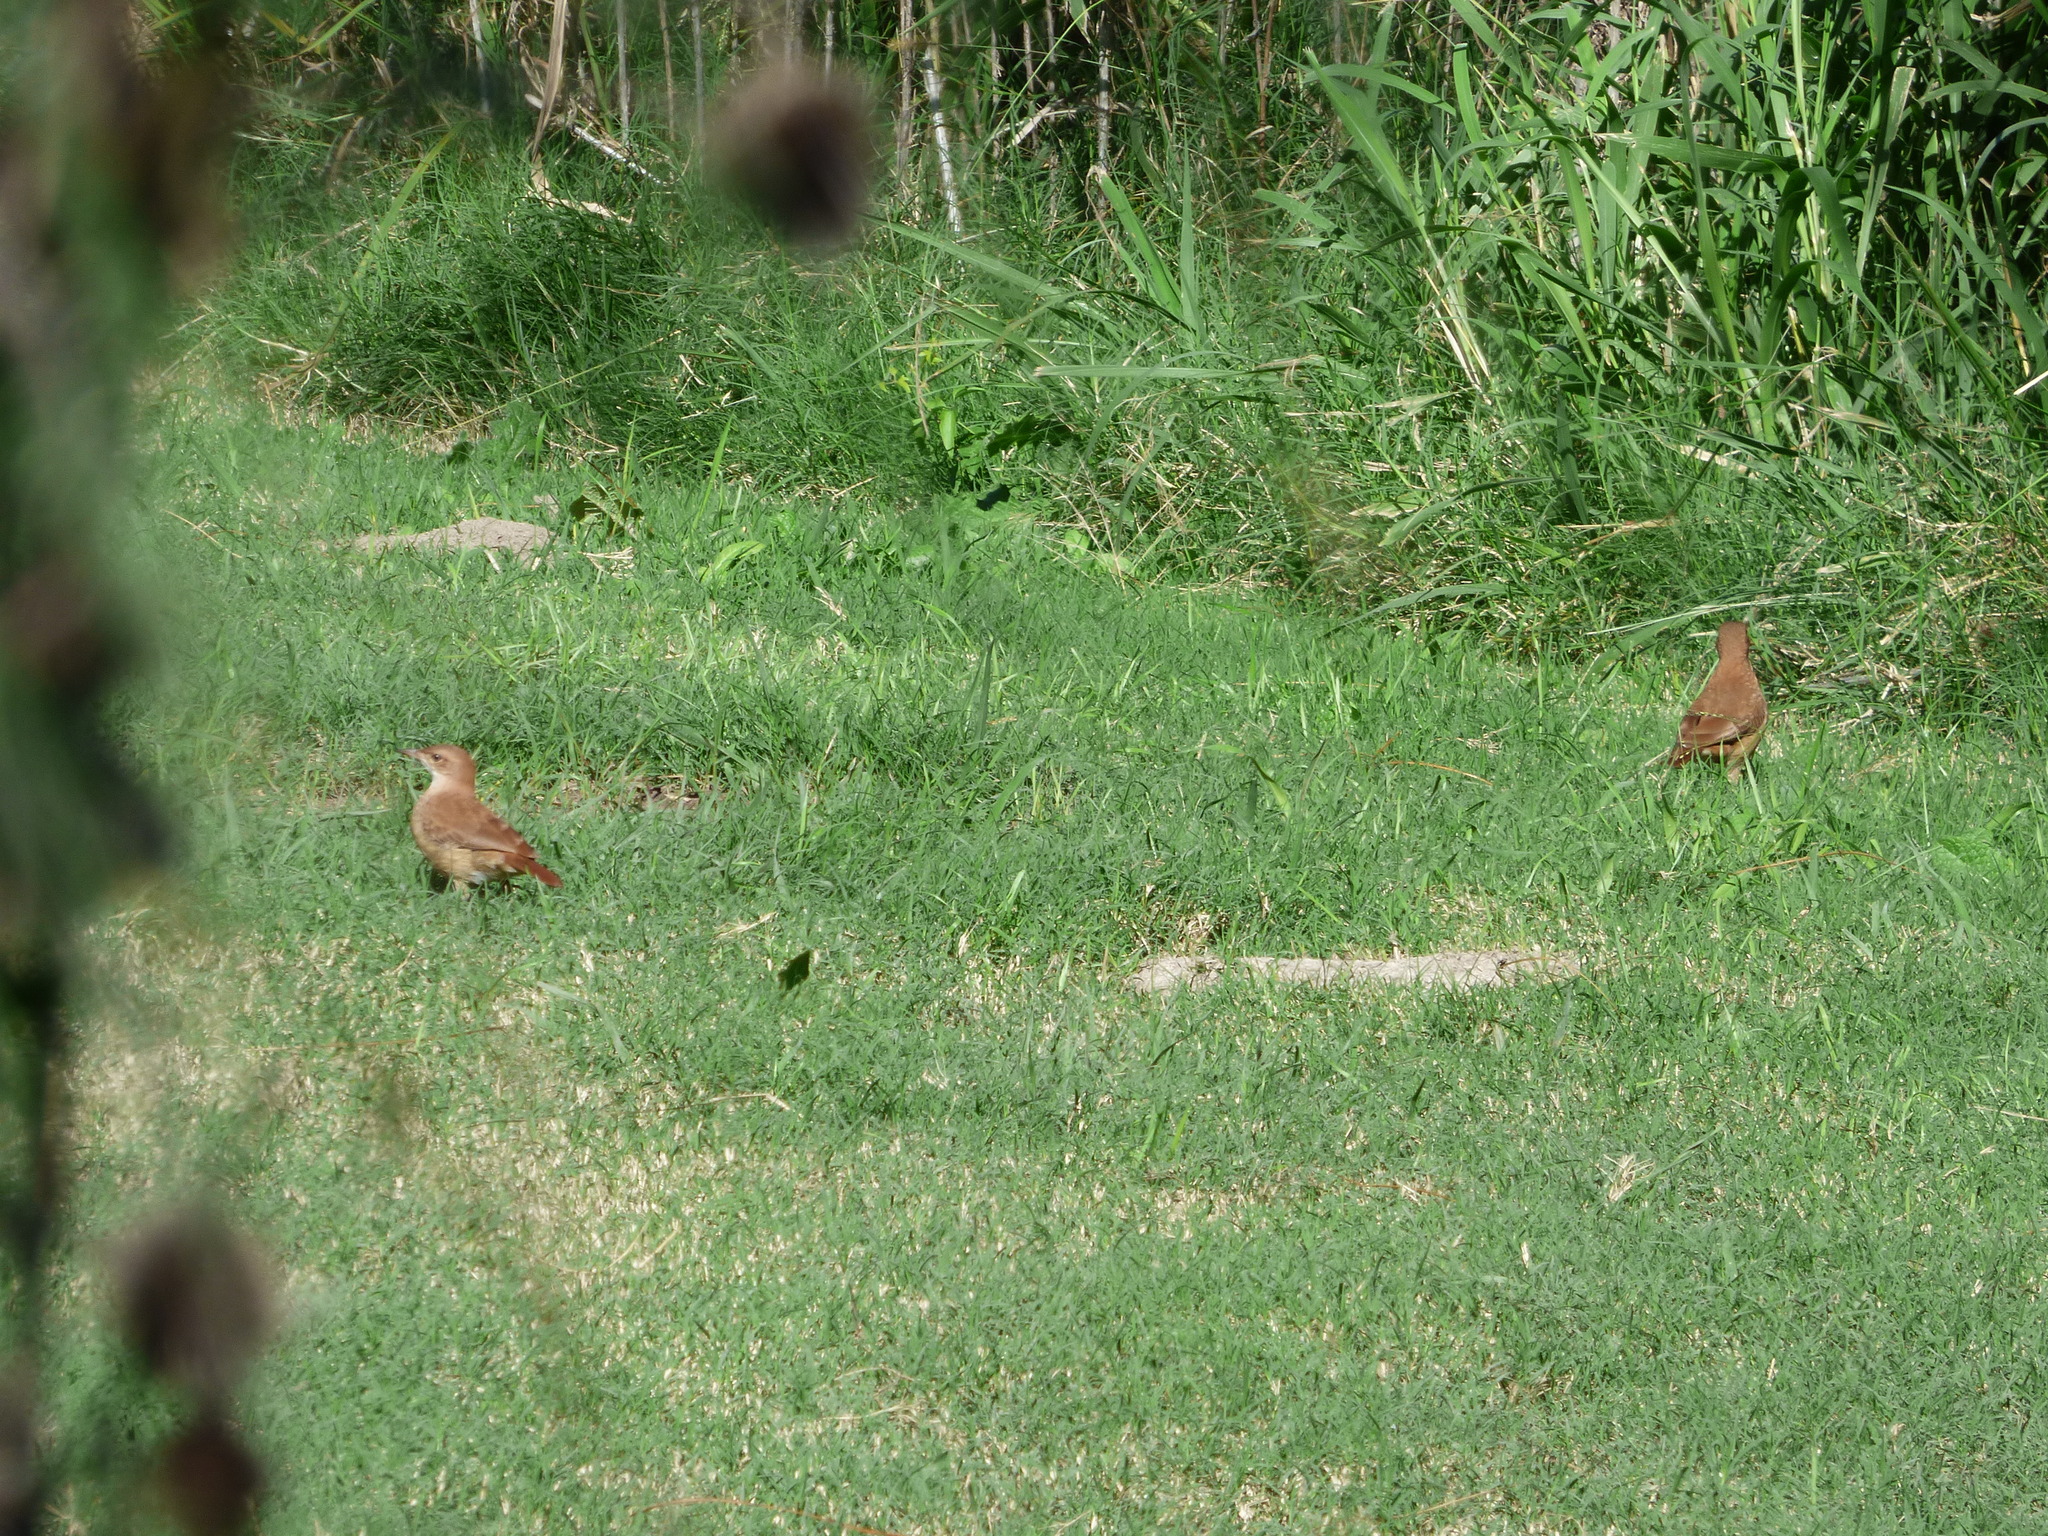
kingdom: Animalia
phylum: Chordata
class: Aves
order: Passeriformes
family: Furnariidae
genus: Furnarius
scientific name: Furnarius rufus
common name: Rufous hornero
